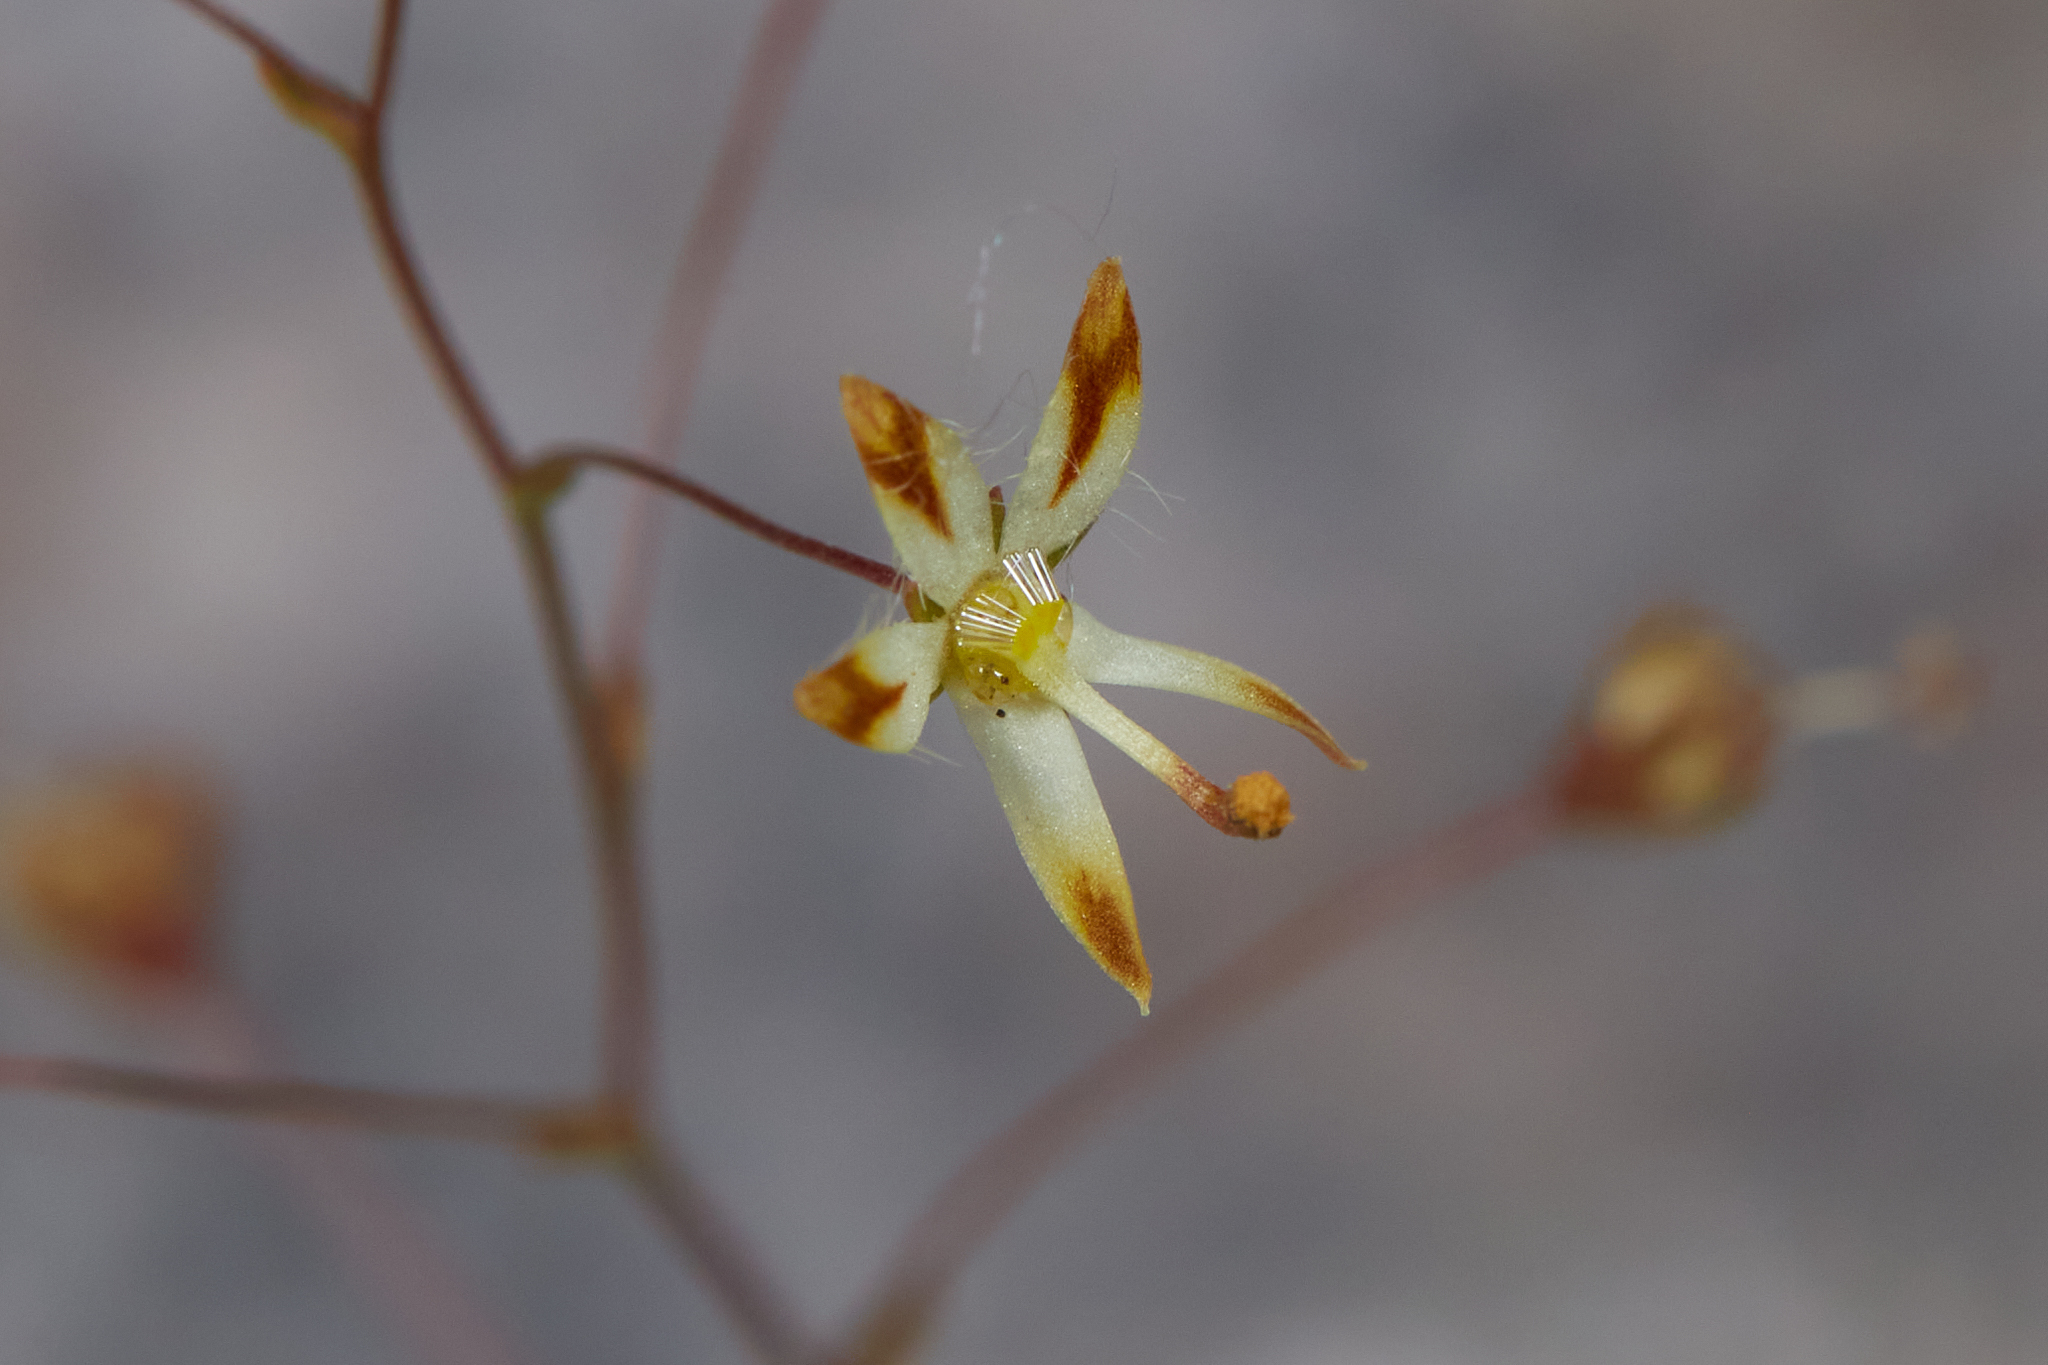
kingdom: Plantae
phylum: Tracheophyta
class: Magnoliopsida
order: Asterales
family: Campanulaceae
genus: Nemacladus
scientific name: Nemacladus rubescens
